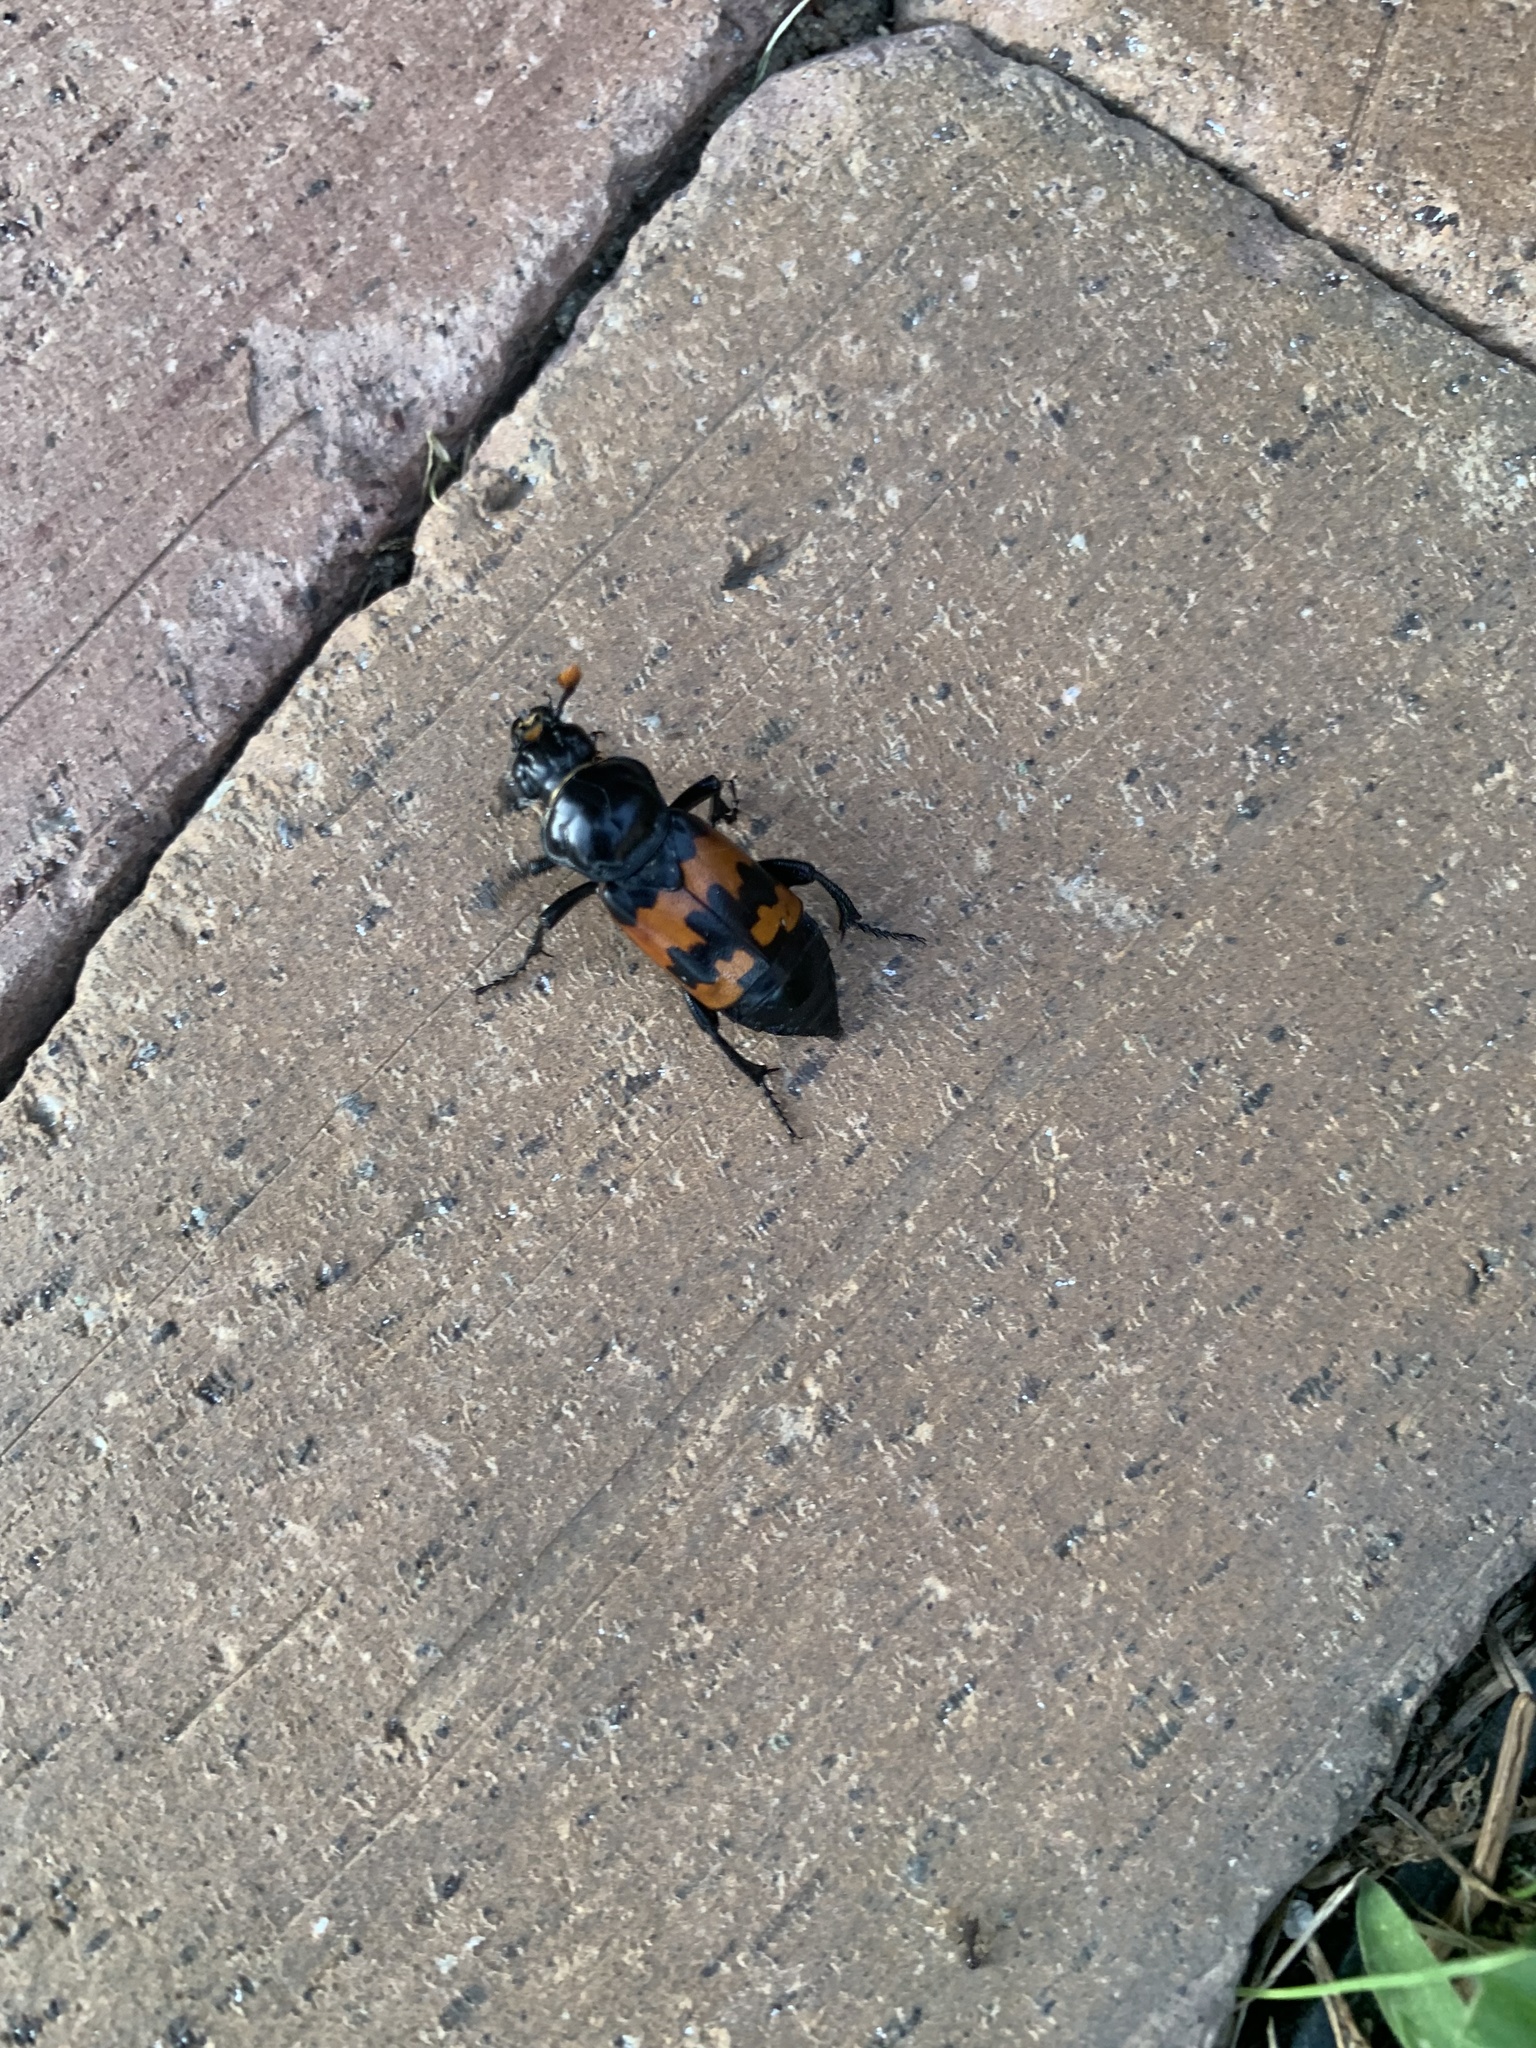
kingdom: Animalia
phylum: Arthropoda
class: Insecta
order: Coleoptera
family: Staphylinidae
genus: Nicrophorus
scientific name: Nicrophorus marginatus
